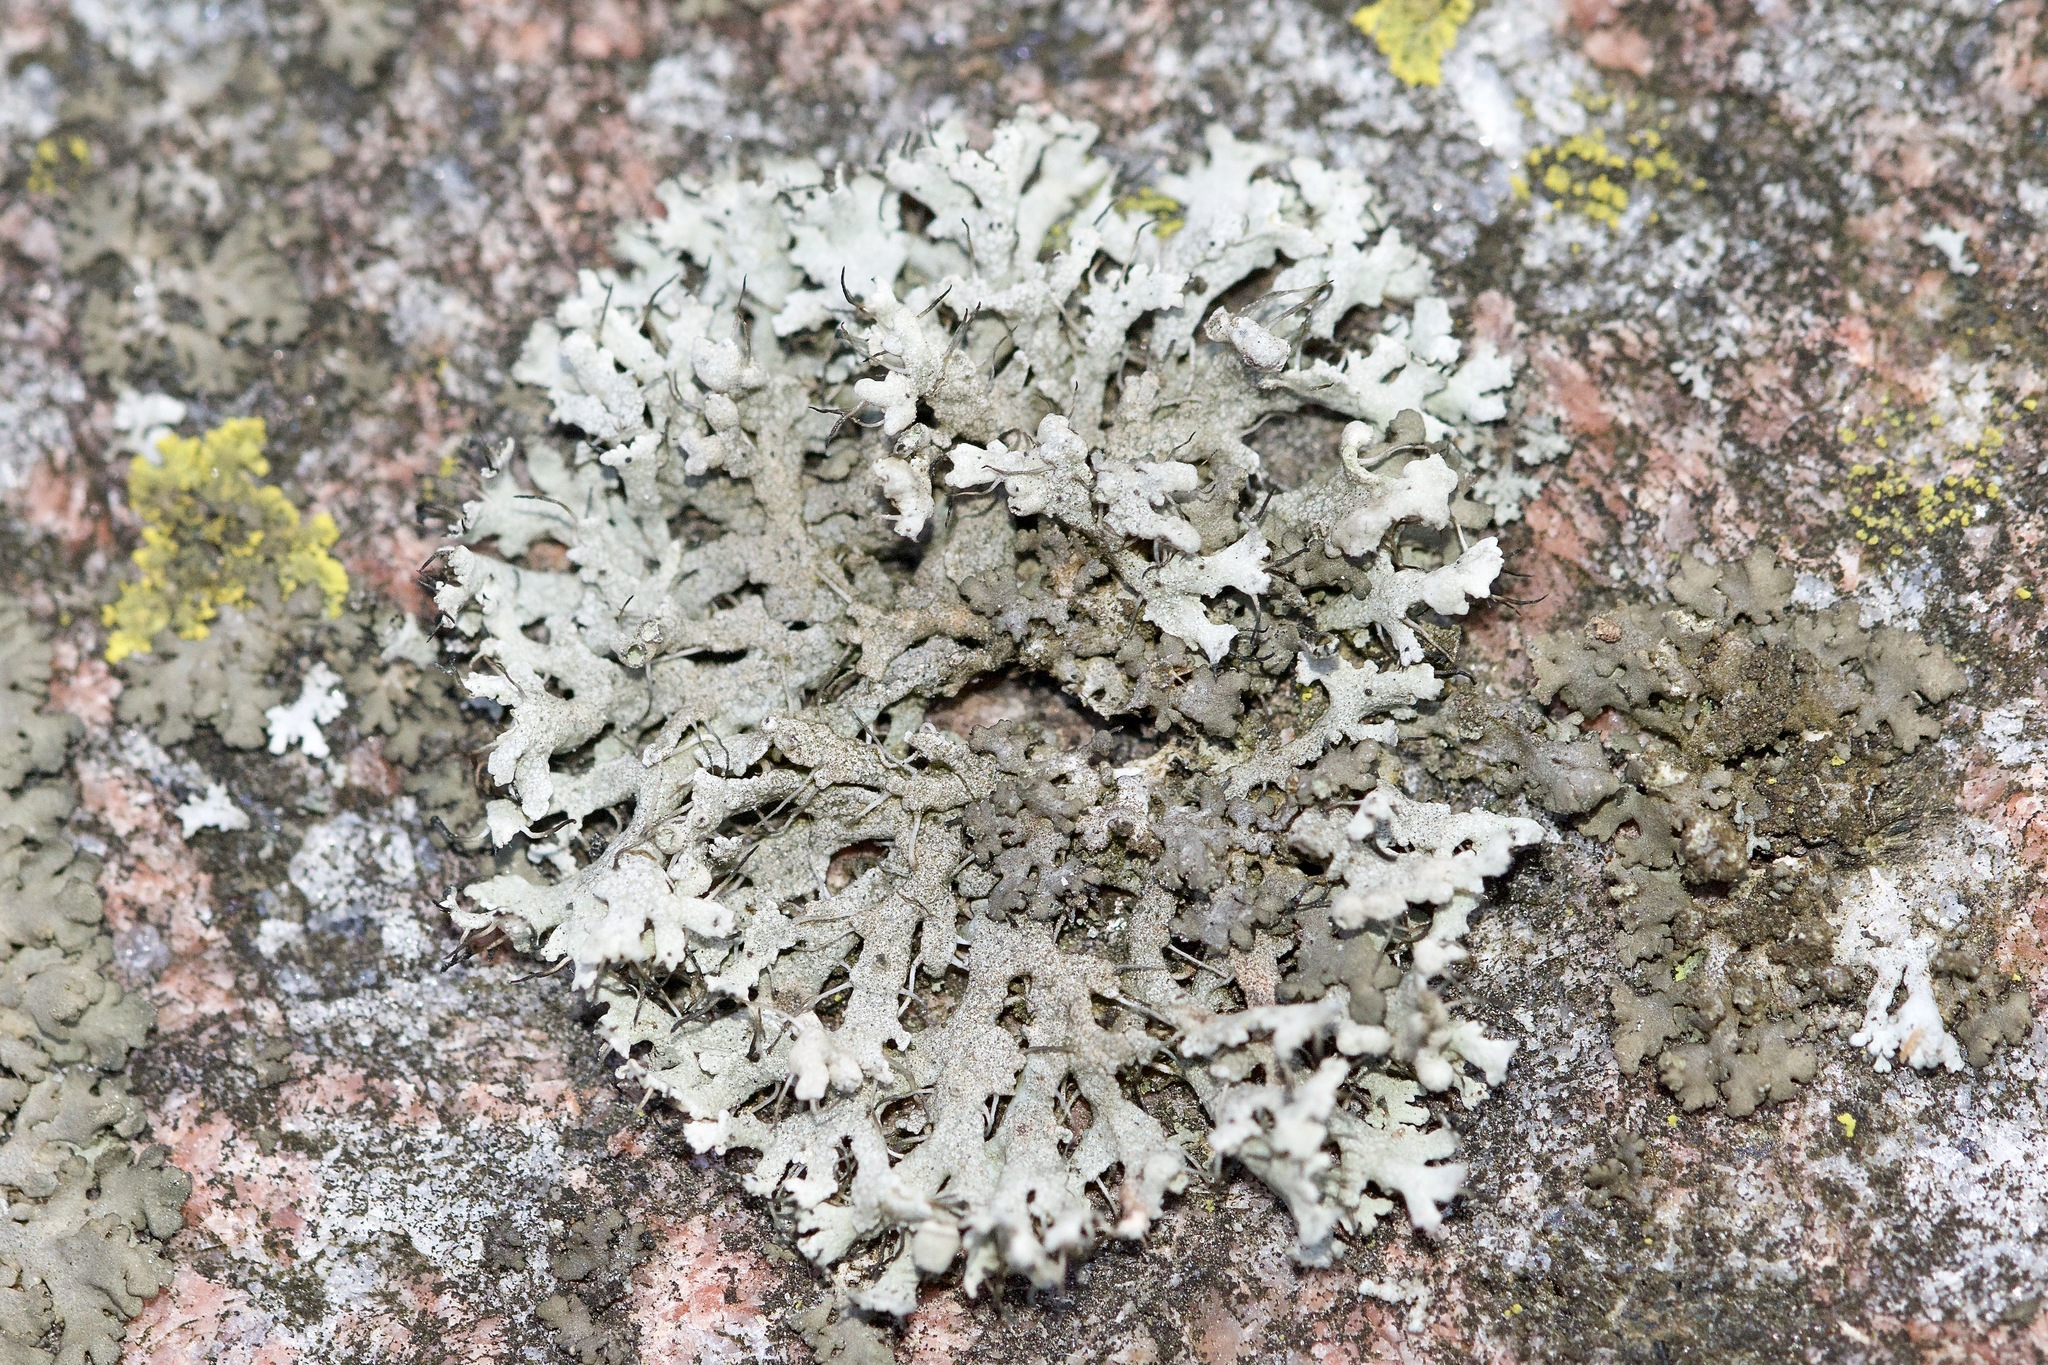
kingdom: Fungi
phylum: Ascomycota
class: Lecanoromycetes
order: Caliciales
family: Physciaceae
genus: Physcia
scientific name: Physcia adscendens
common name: Hooded rosette lichen
